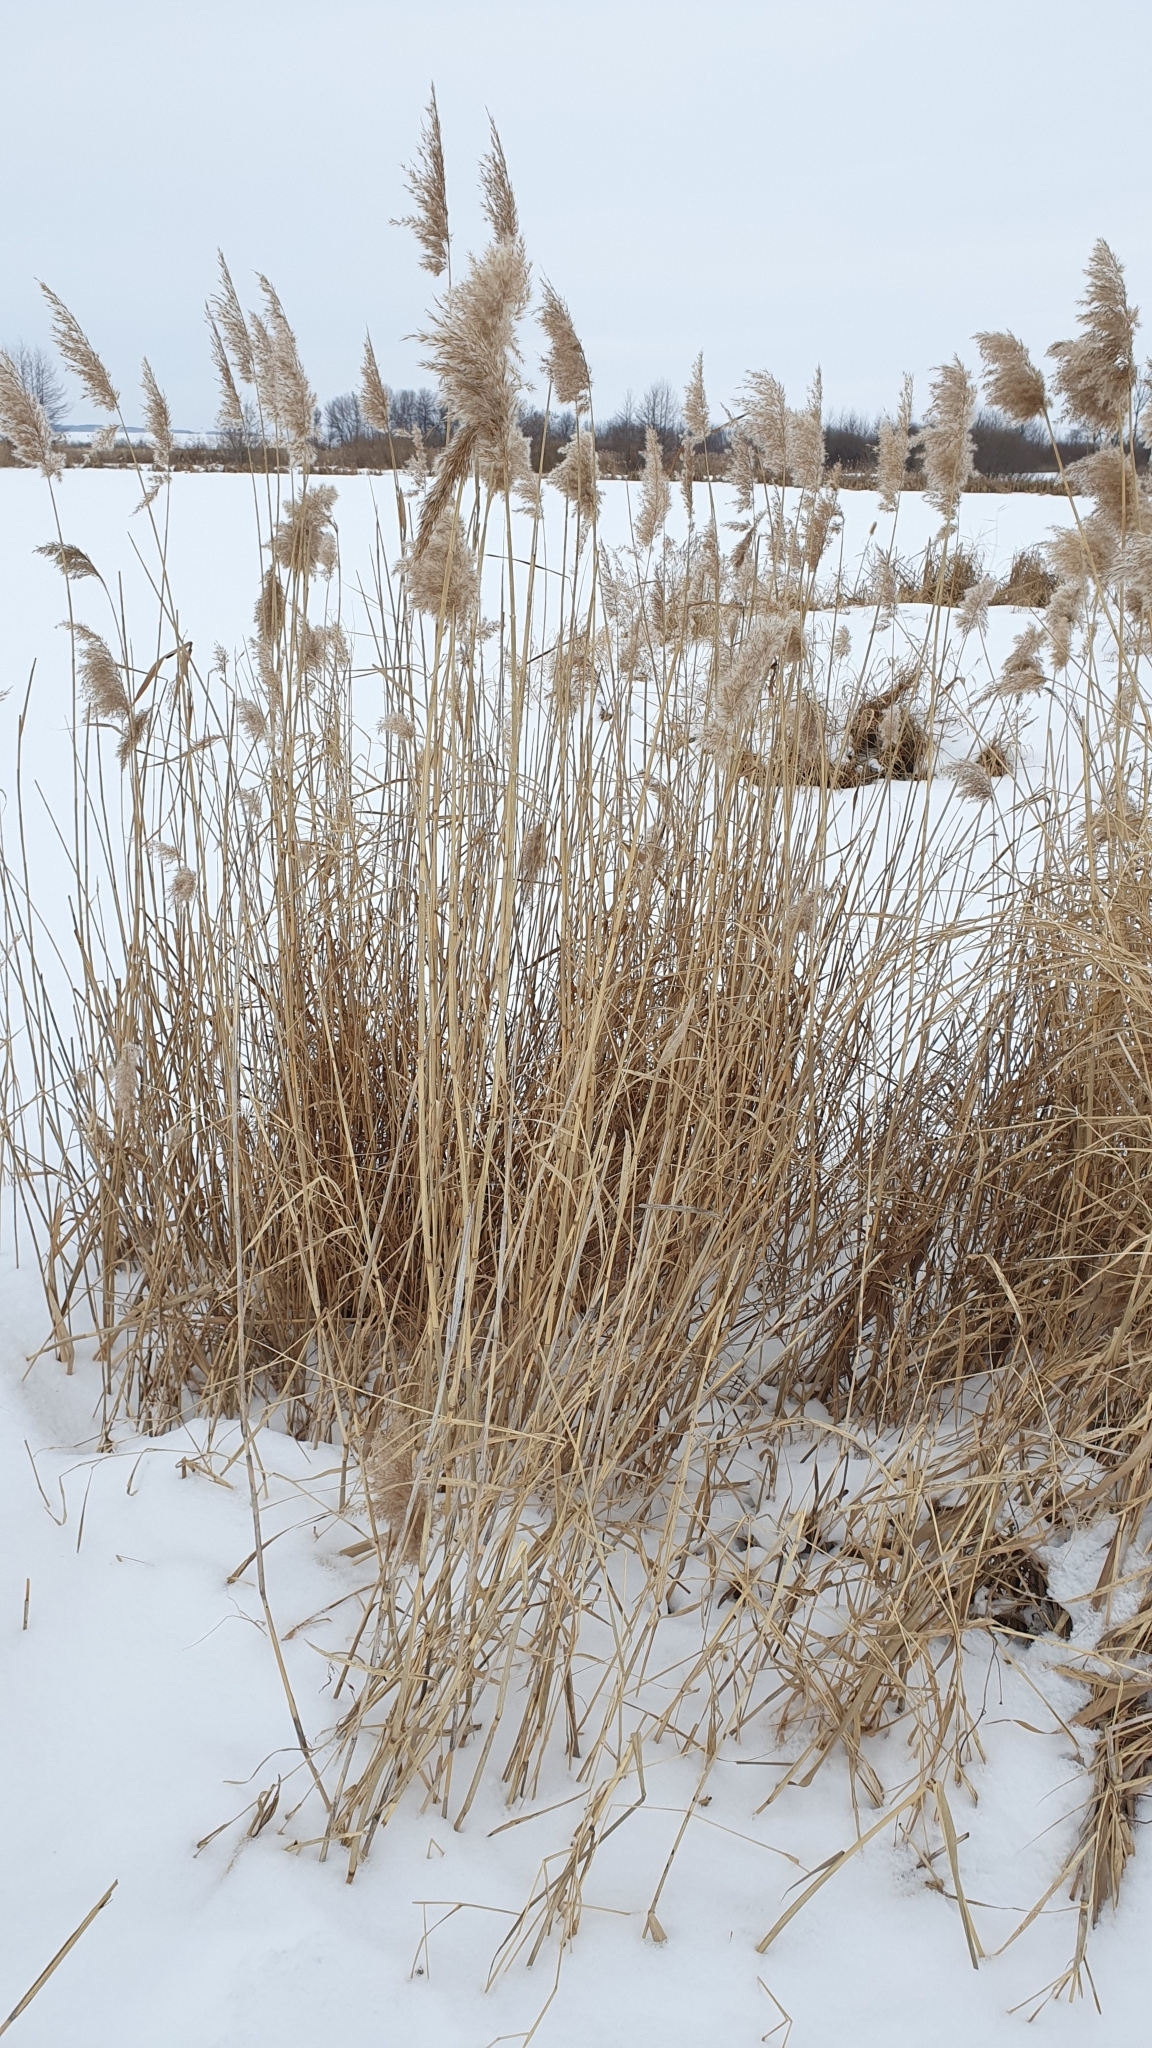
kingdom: Plantae
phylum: Tracheophyta
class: Liliopsida
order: Poales
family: Poaceae
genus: Phragmites
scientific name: Phragmites australis
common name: Common reed
